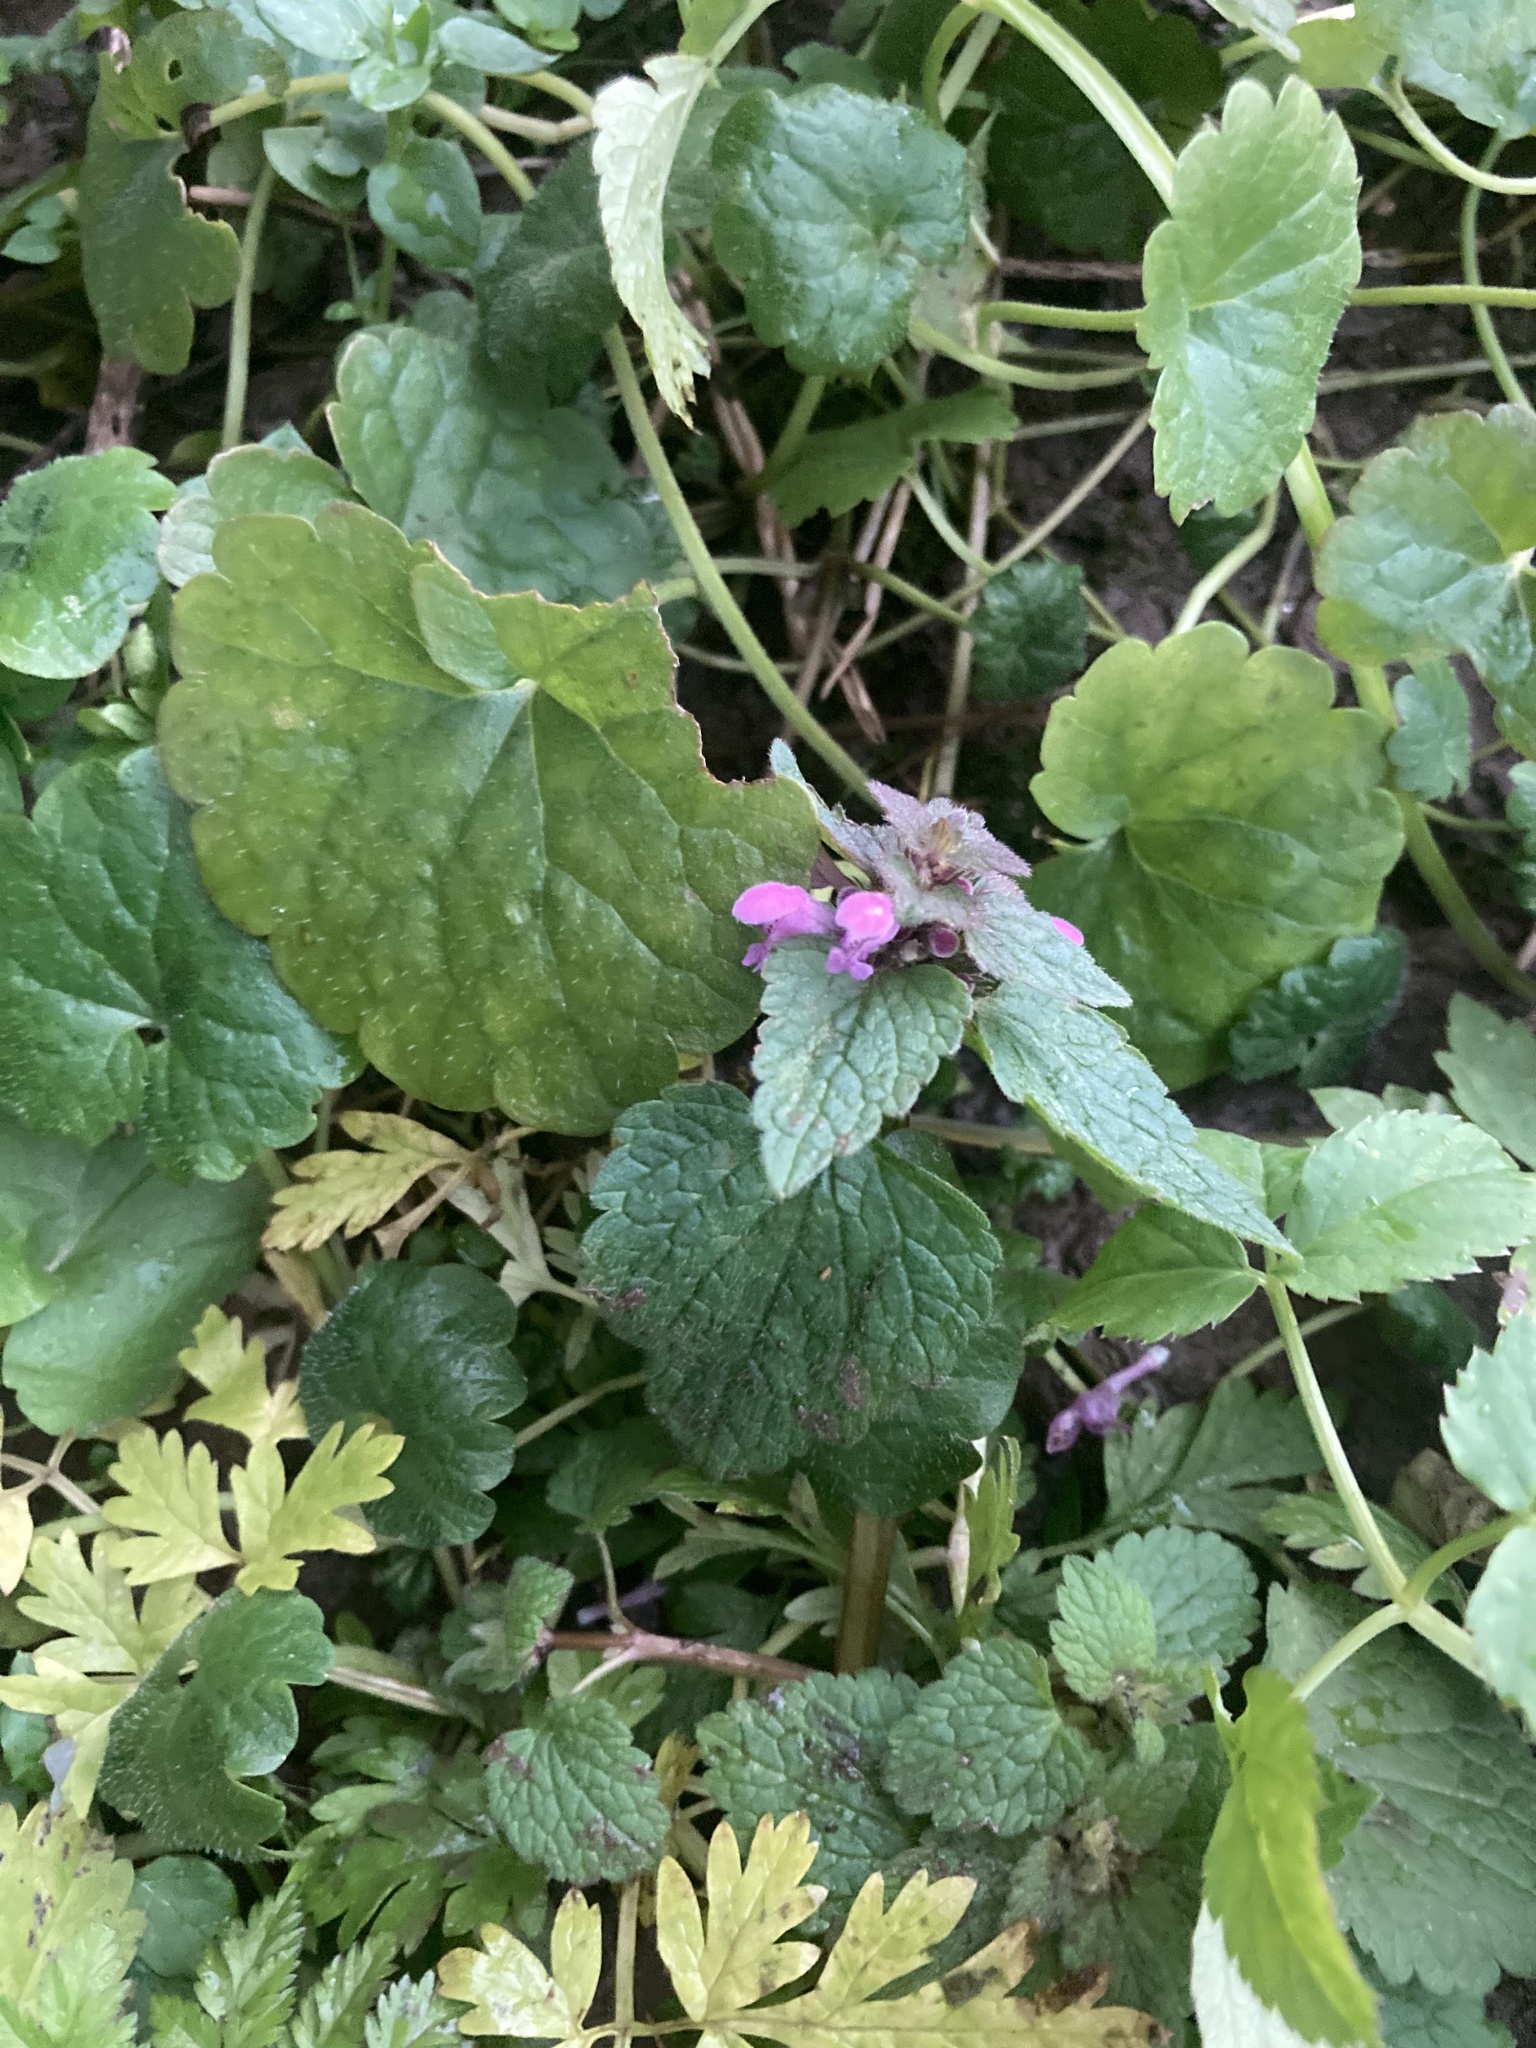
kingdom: Plantae
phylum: Tracheophyta
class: Magnoliopsida
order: Lamiales
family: Lamiaceae
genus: Lamium
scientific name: Lamium purpureum
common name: Red dead-nettle
